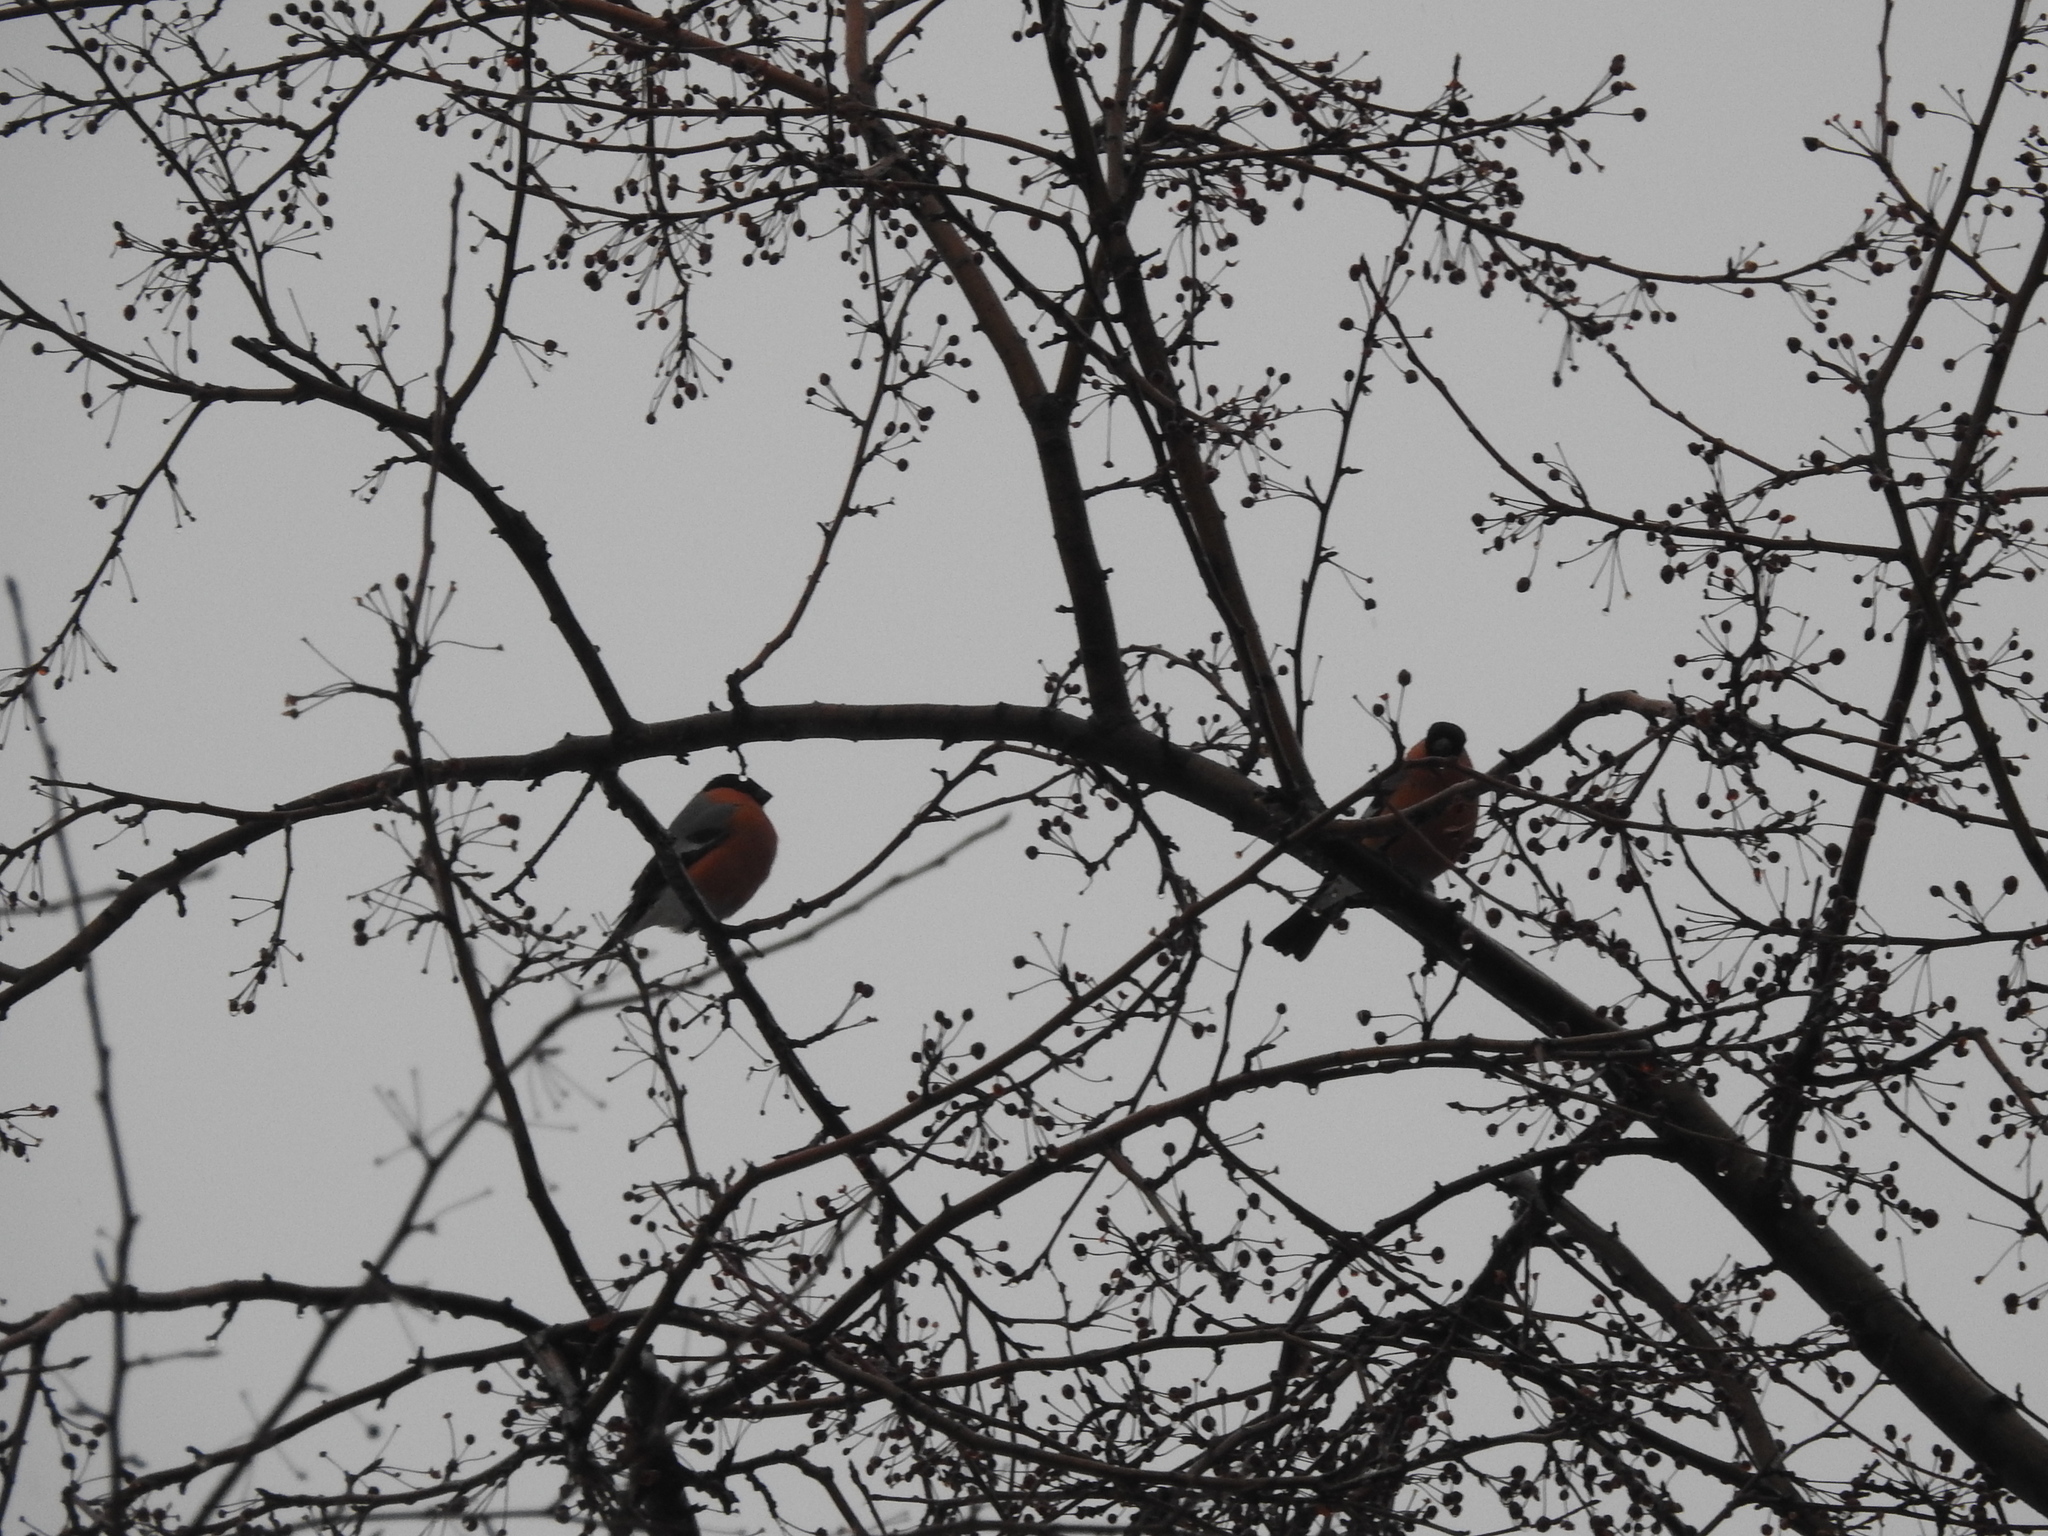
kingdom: Animalia
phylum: Chordata
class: Aves
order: Passeriformes
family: Fringillidae
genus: Pyrrhula
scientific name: Pyrrhula pyrrhula
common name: Eurasian bullfinch
